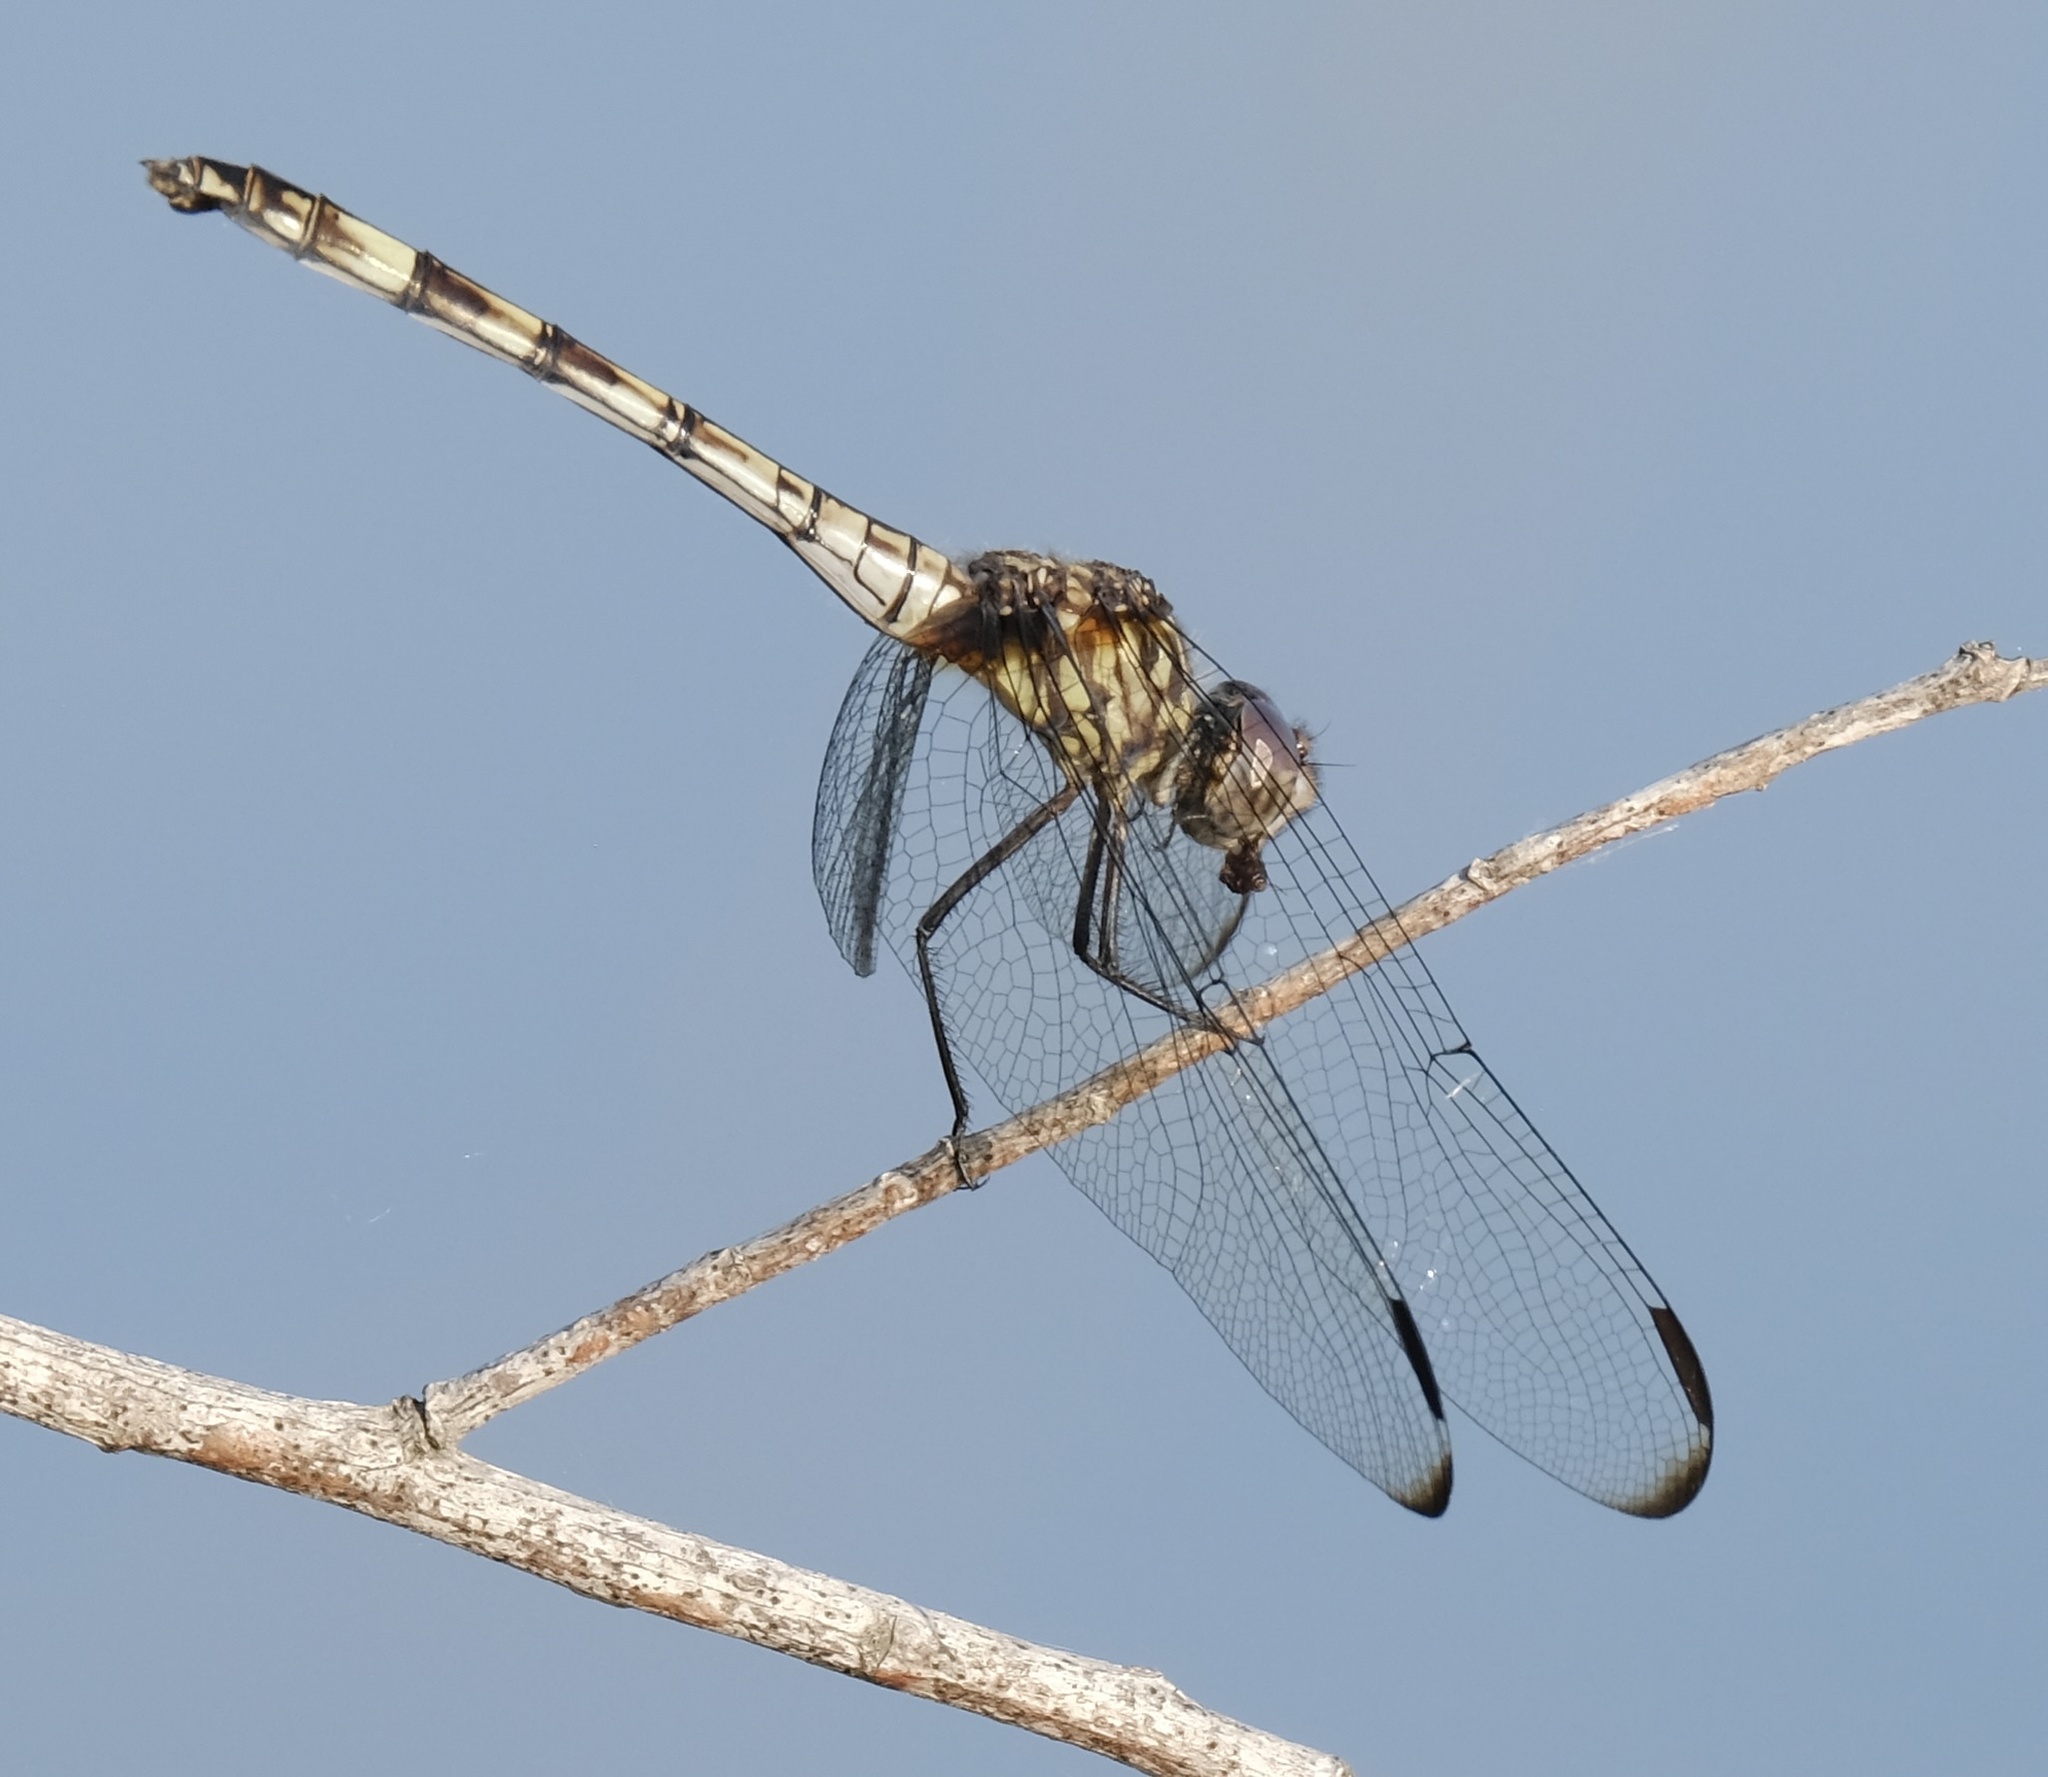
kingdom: Animalia
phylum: Arthropoda
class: Insecta
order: Odonata
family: Libellulidae
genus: Dythemis
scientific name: Dythemis nigrescens
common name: Black setwing
